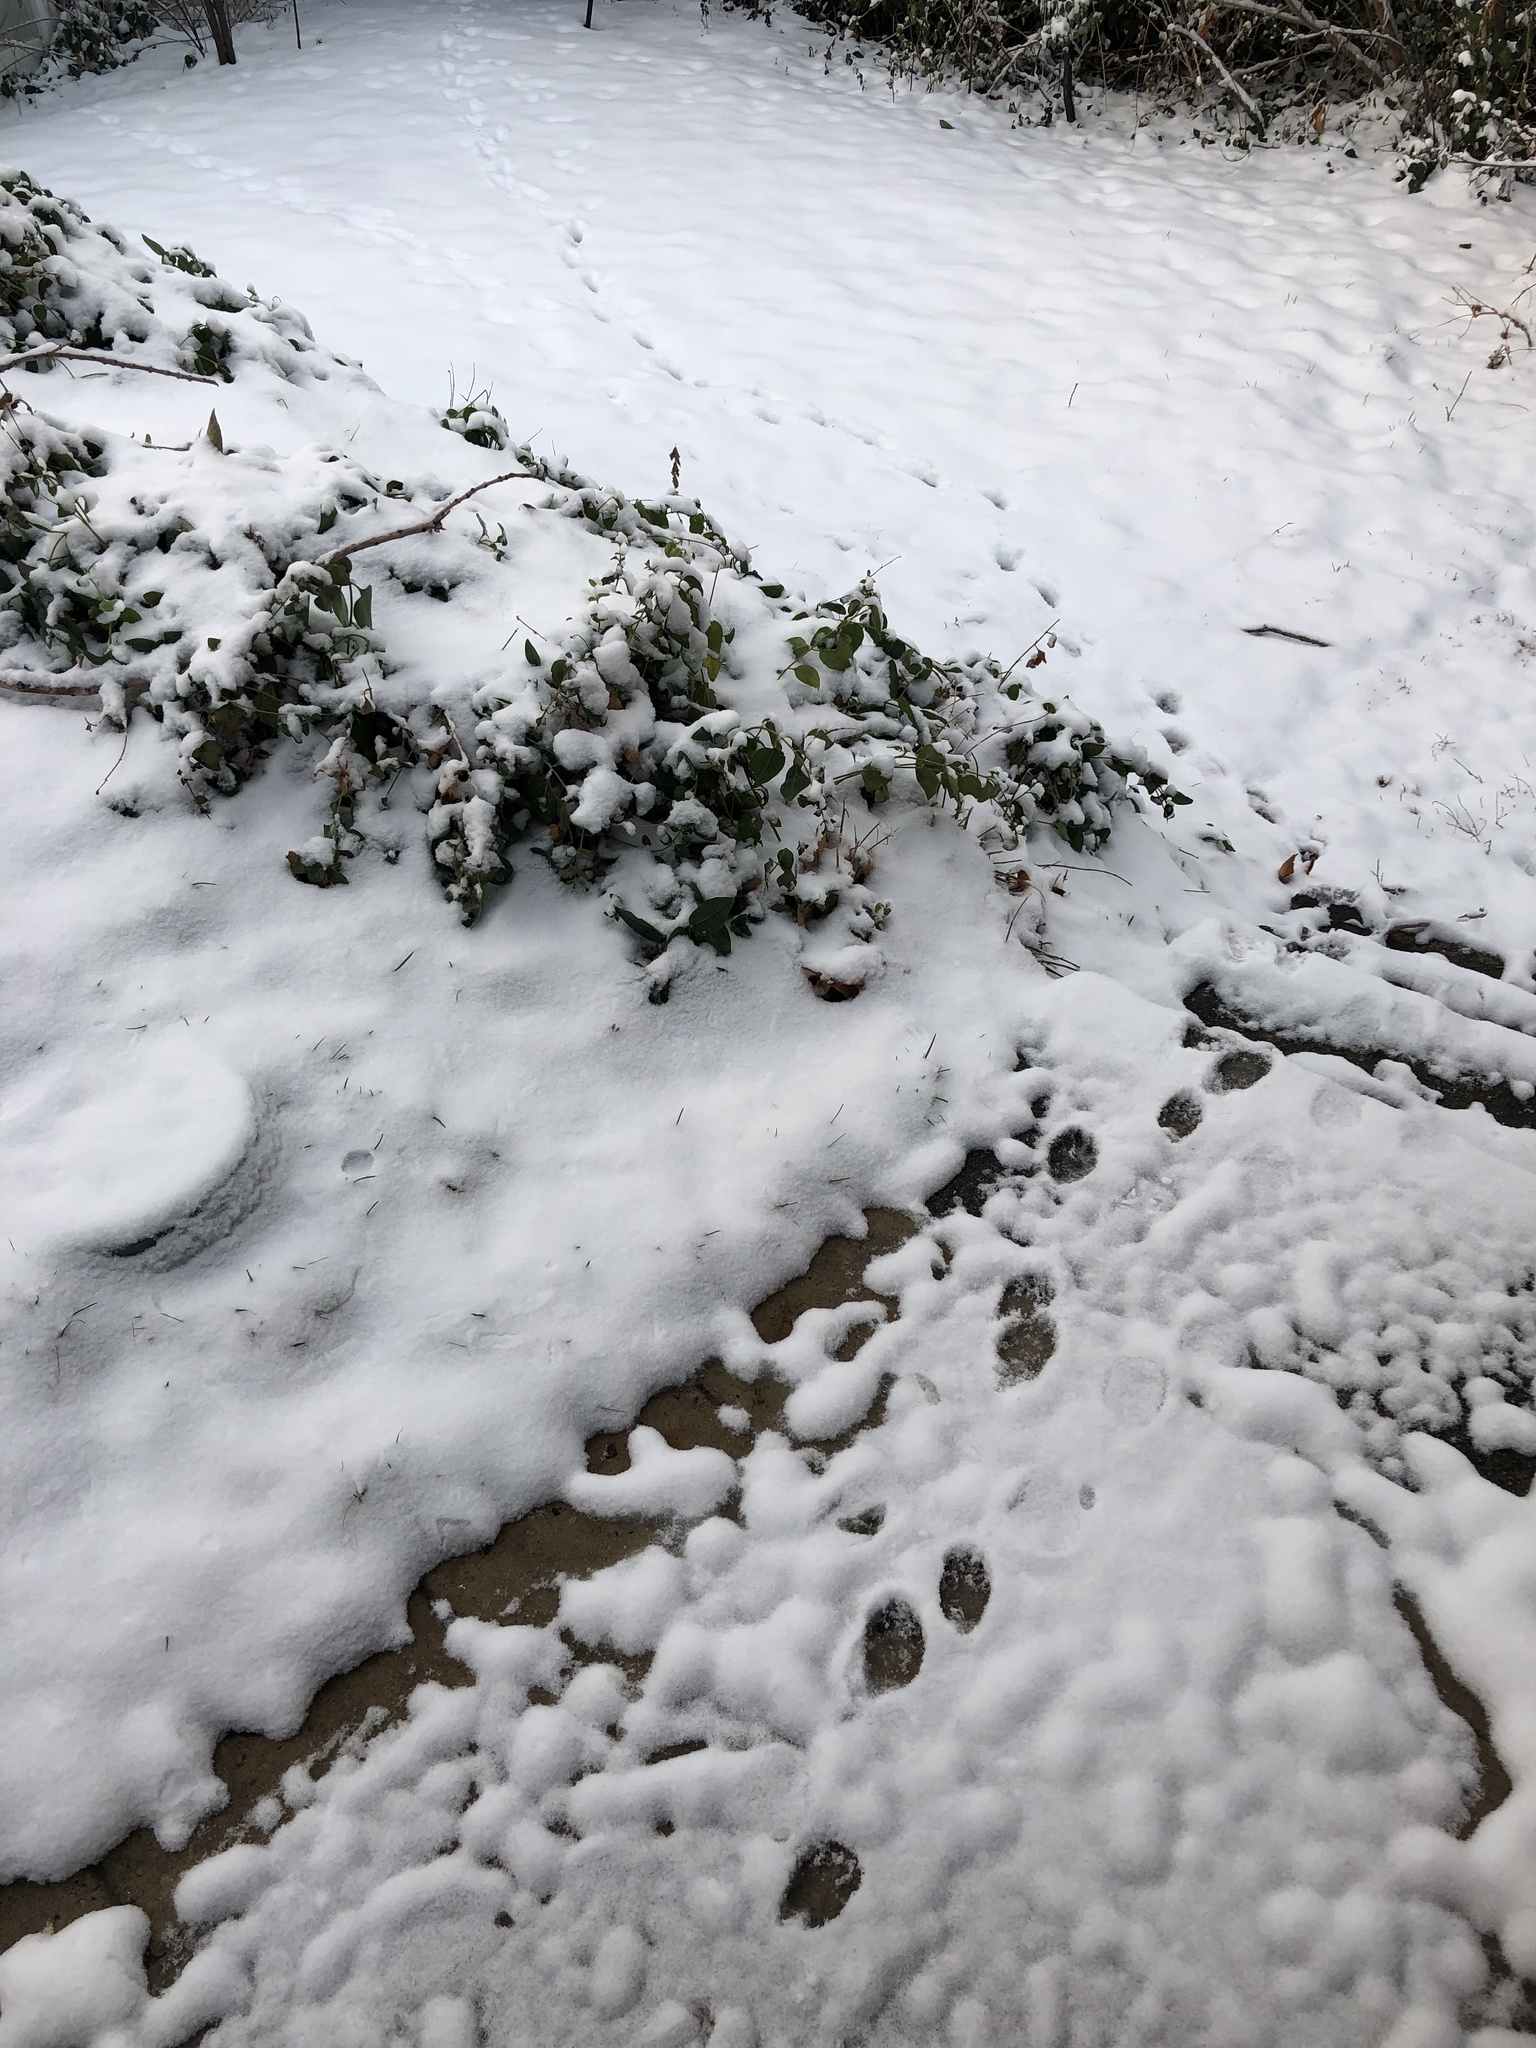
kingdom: Animalia
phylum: Chordata
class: Mammalia
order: Carnivora
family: Procyonidae
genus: Procyon
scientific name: Procyon lotor
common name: Raccoon
